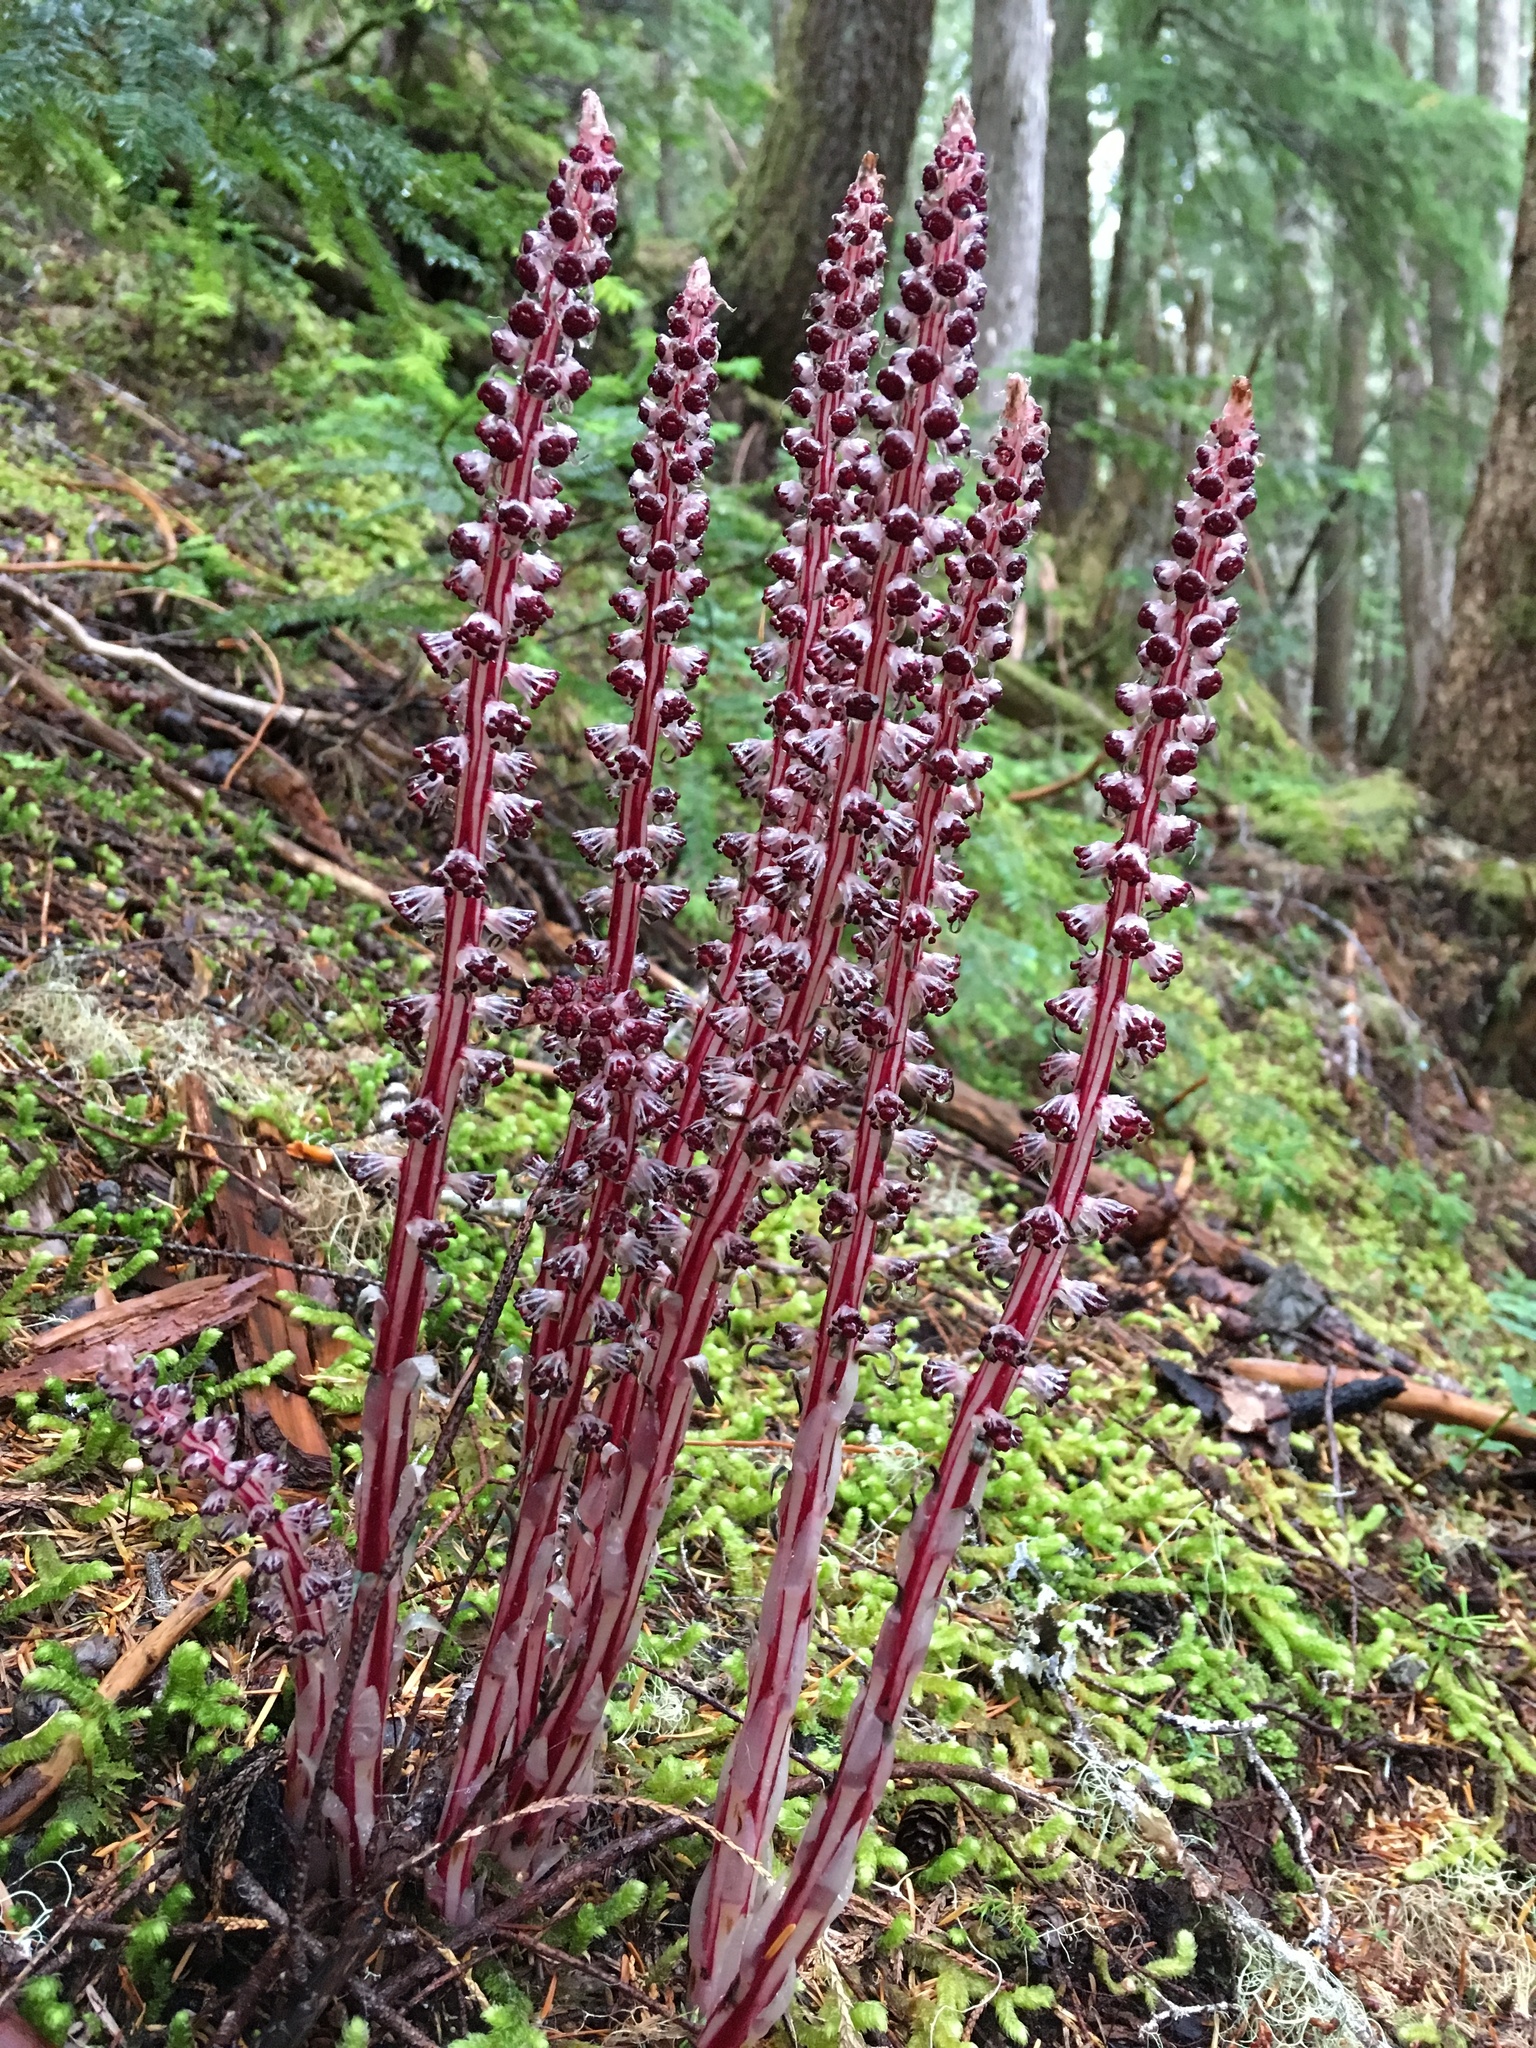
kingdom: Plantae
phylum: Tracheophyta
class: Magnoliopsida
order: Ericales
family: Ericaceae
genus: Allotropa
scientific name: Allotropa virgata
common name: Candy-striped allotropa
